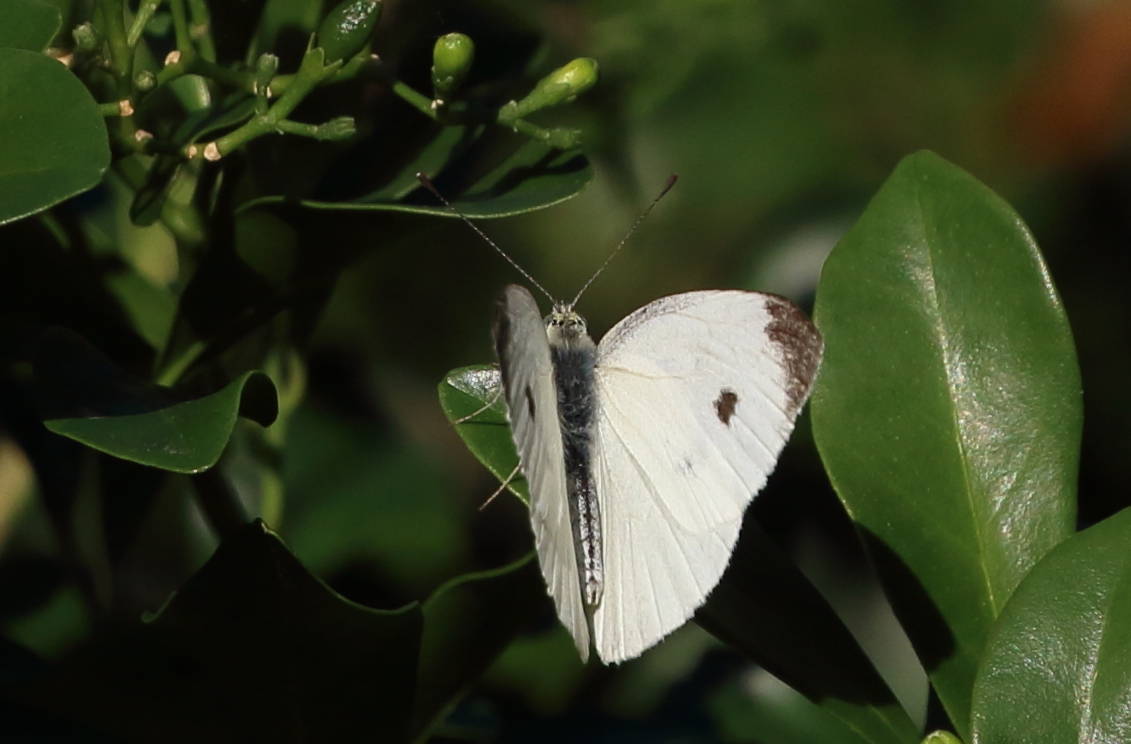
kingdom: Animalia
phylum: Arthropoda
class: Insecta
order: Lepidoptera
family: Pieridae
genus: Pieris
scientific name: Pieris rapae
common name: Small white
